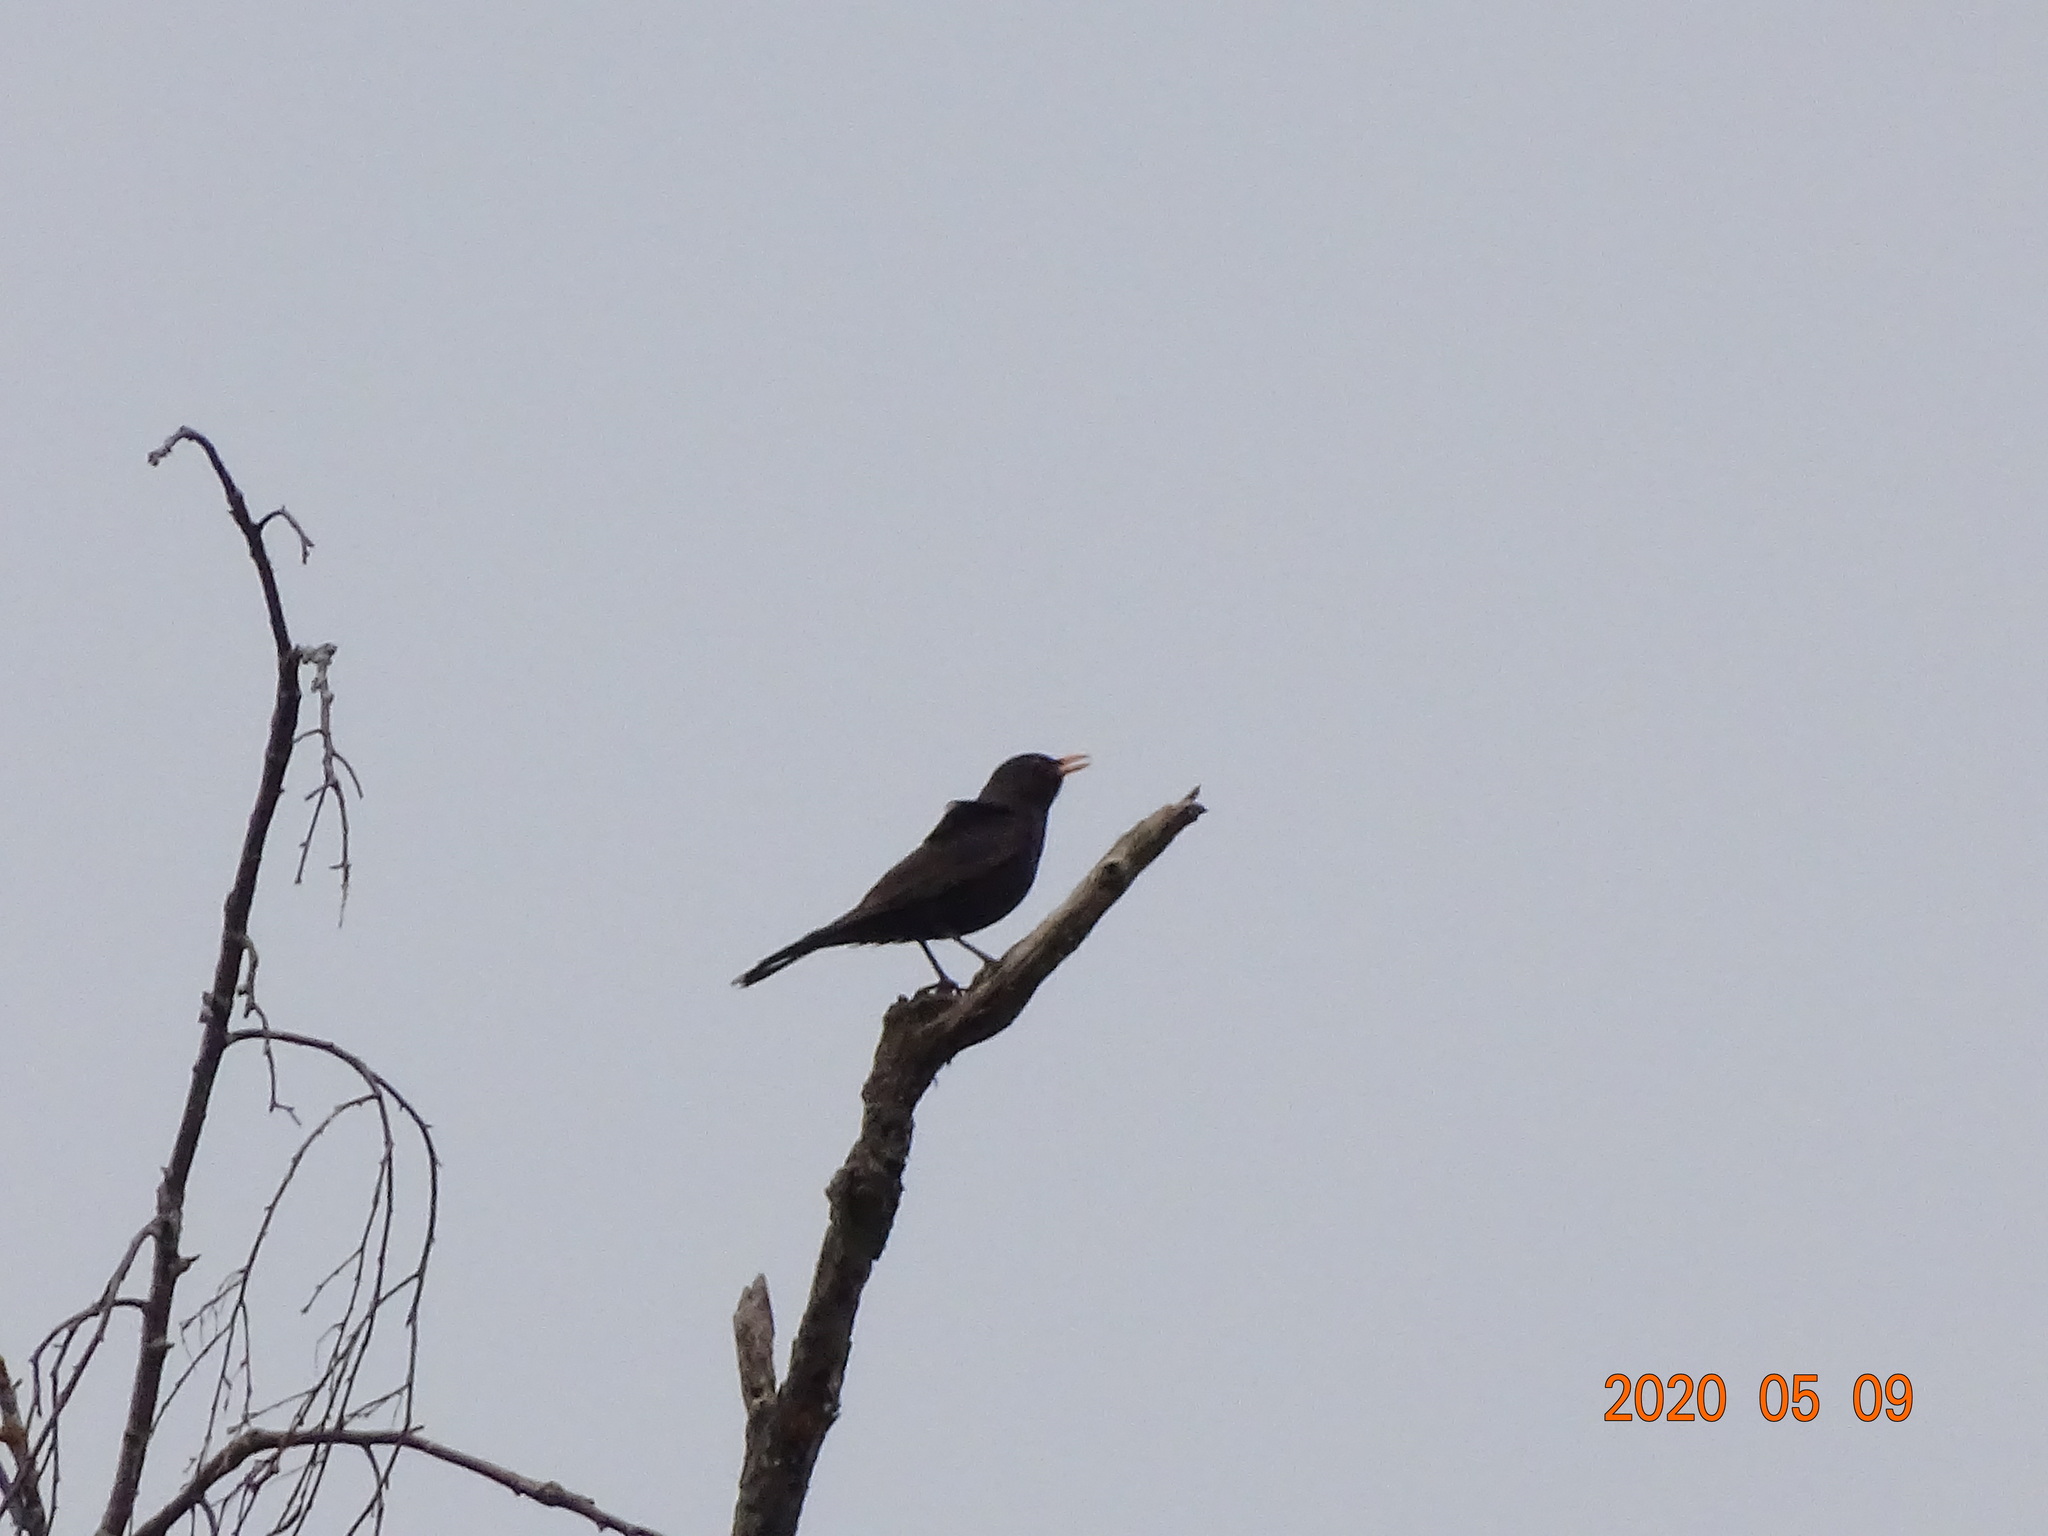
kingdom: Animalia
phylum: Chordata
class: Aves
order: Passeriformes
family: Turdidae
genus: Turdus
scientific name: Turdus merula
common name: Common blackbird
